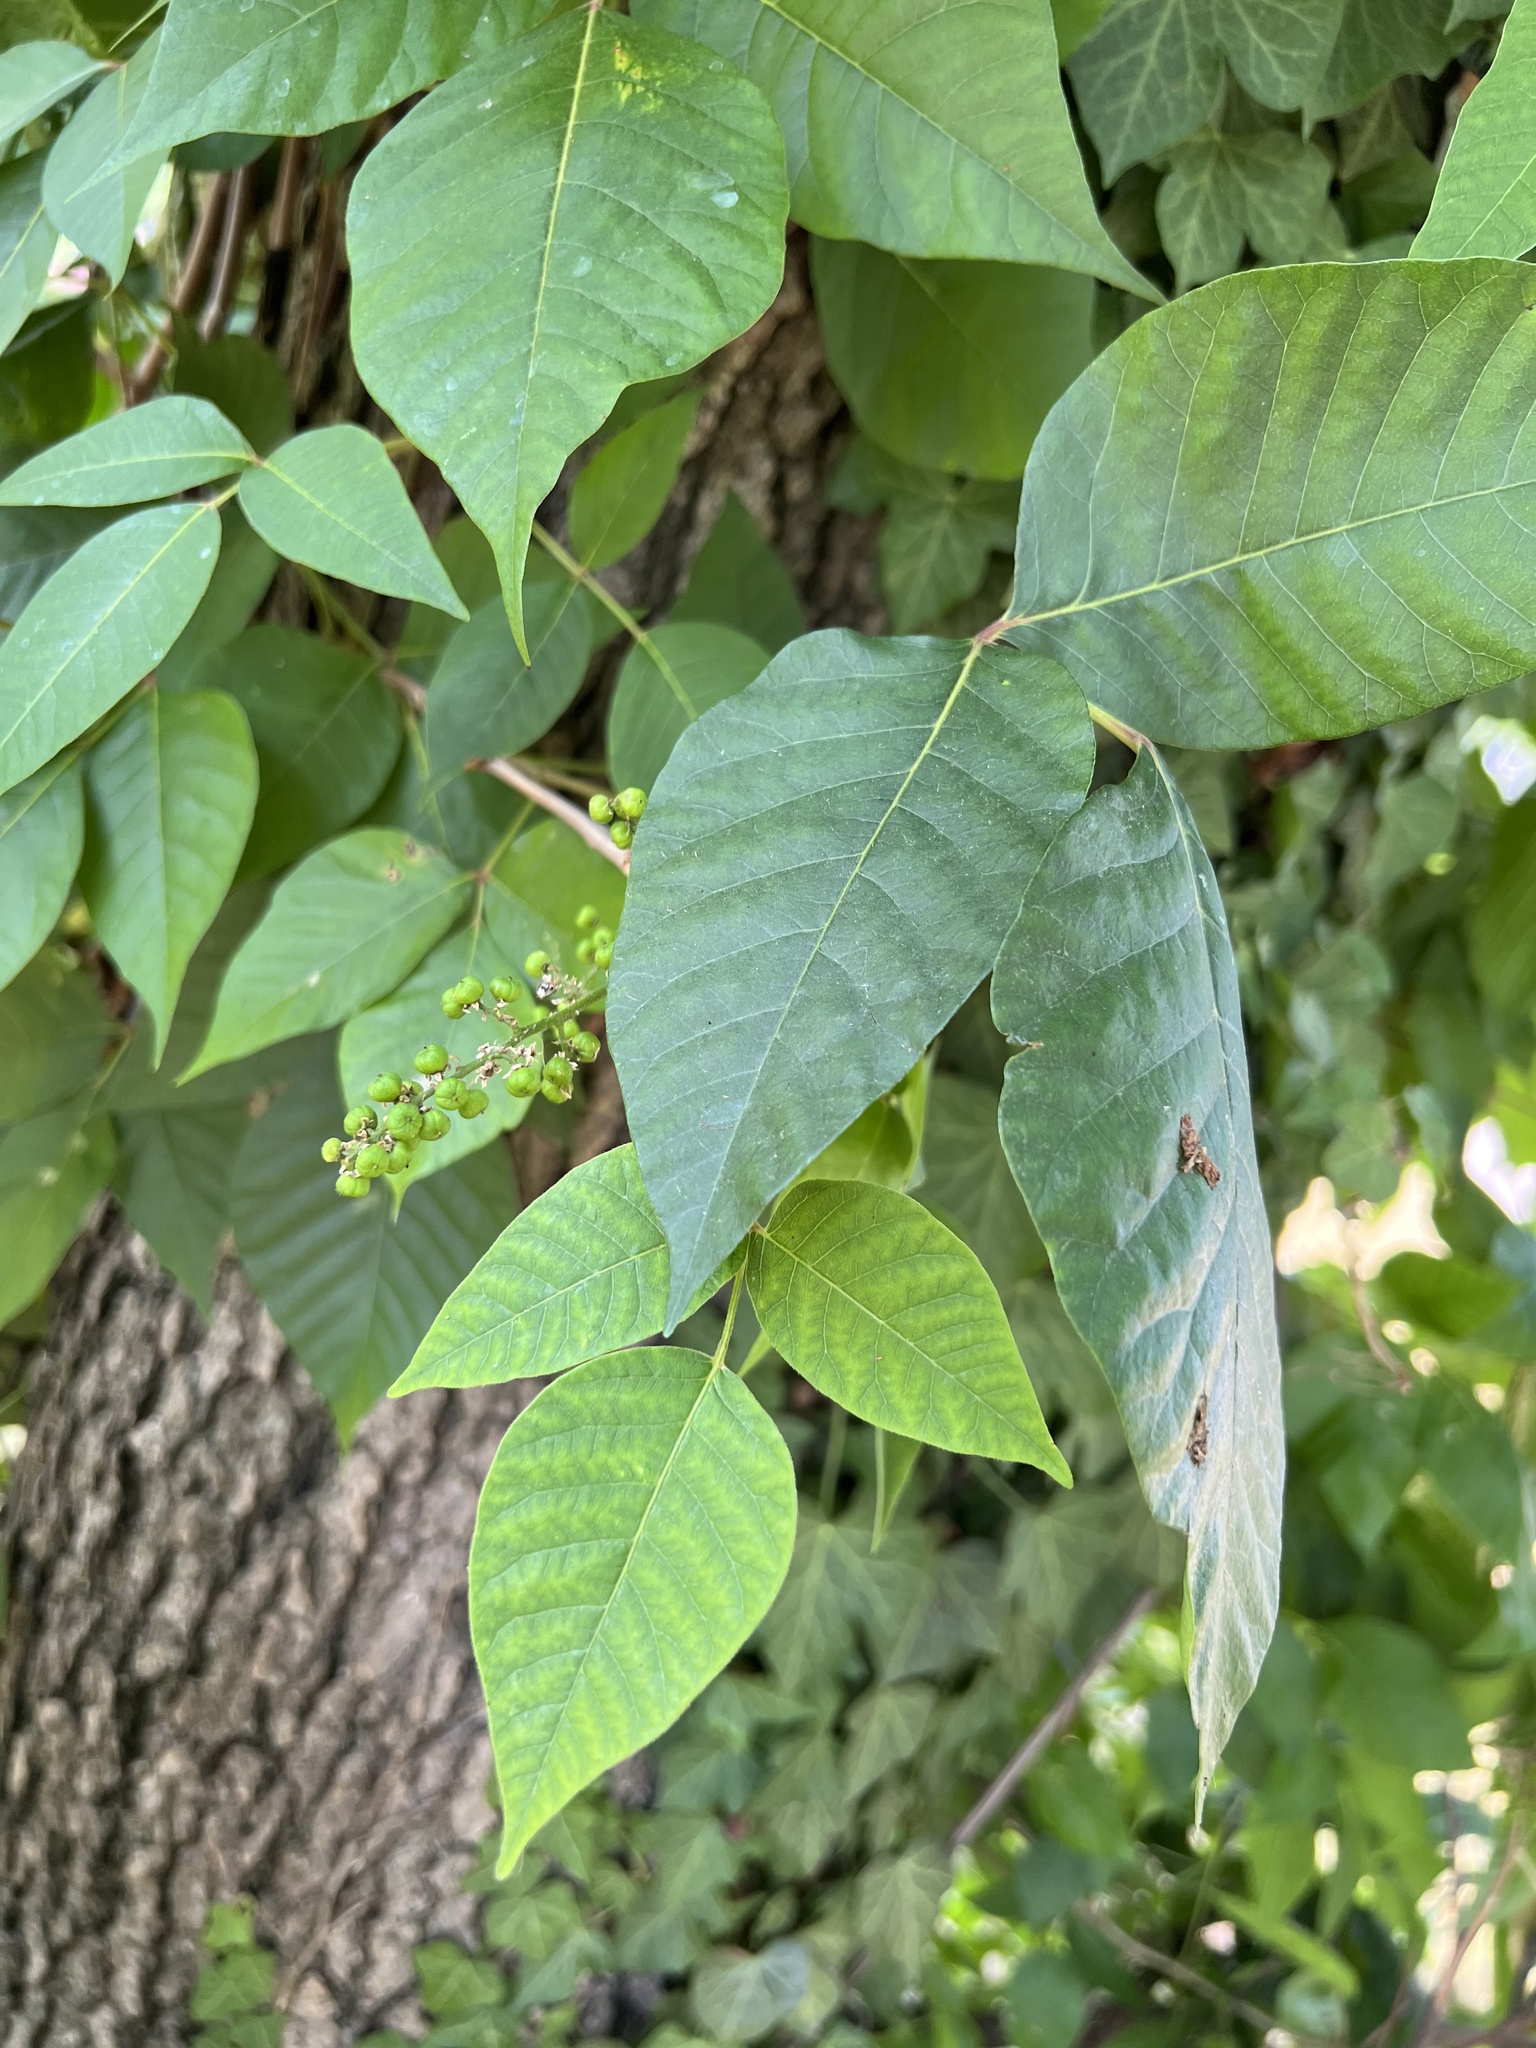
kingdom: Plantae
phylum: Tracheophyta
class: Magnoliopsida
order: Sapindales
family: Anacardiaceae
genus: Toxicodendron
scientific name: Toxicodendron radicans
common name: Poison ivy
